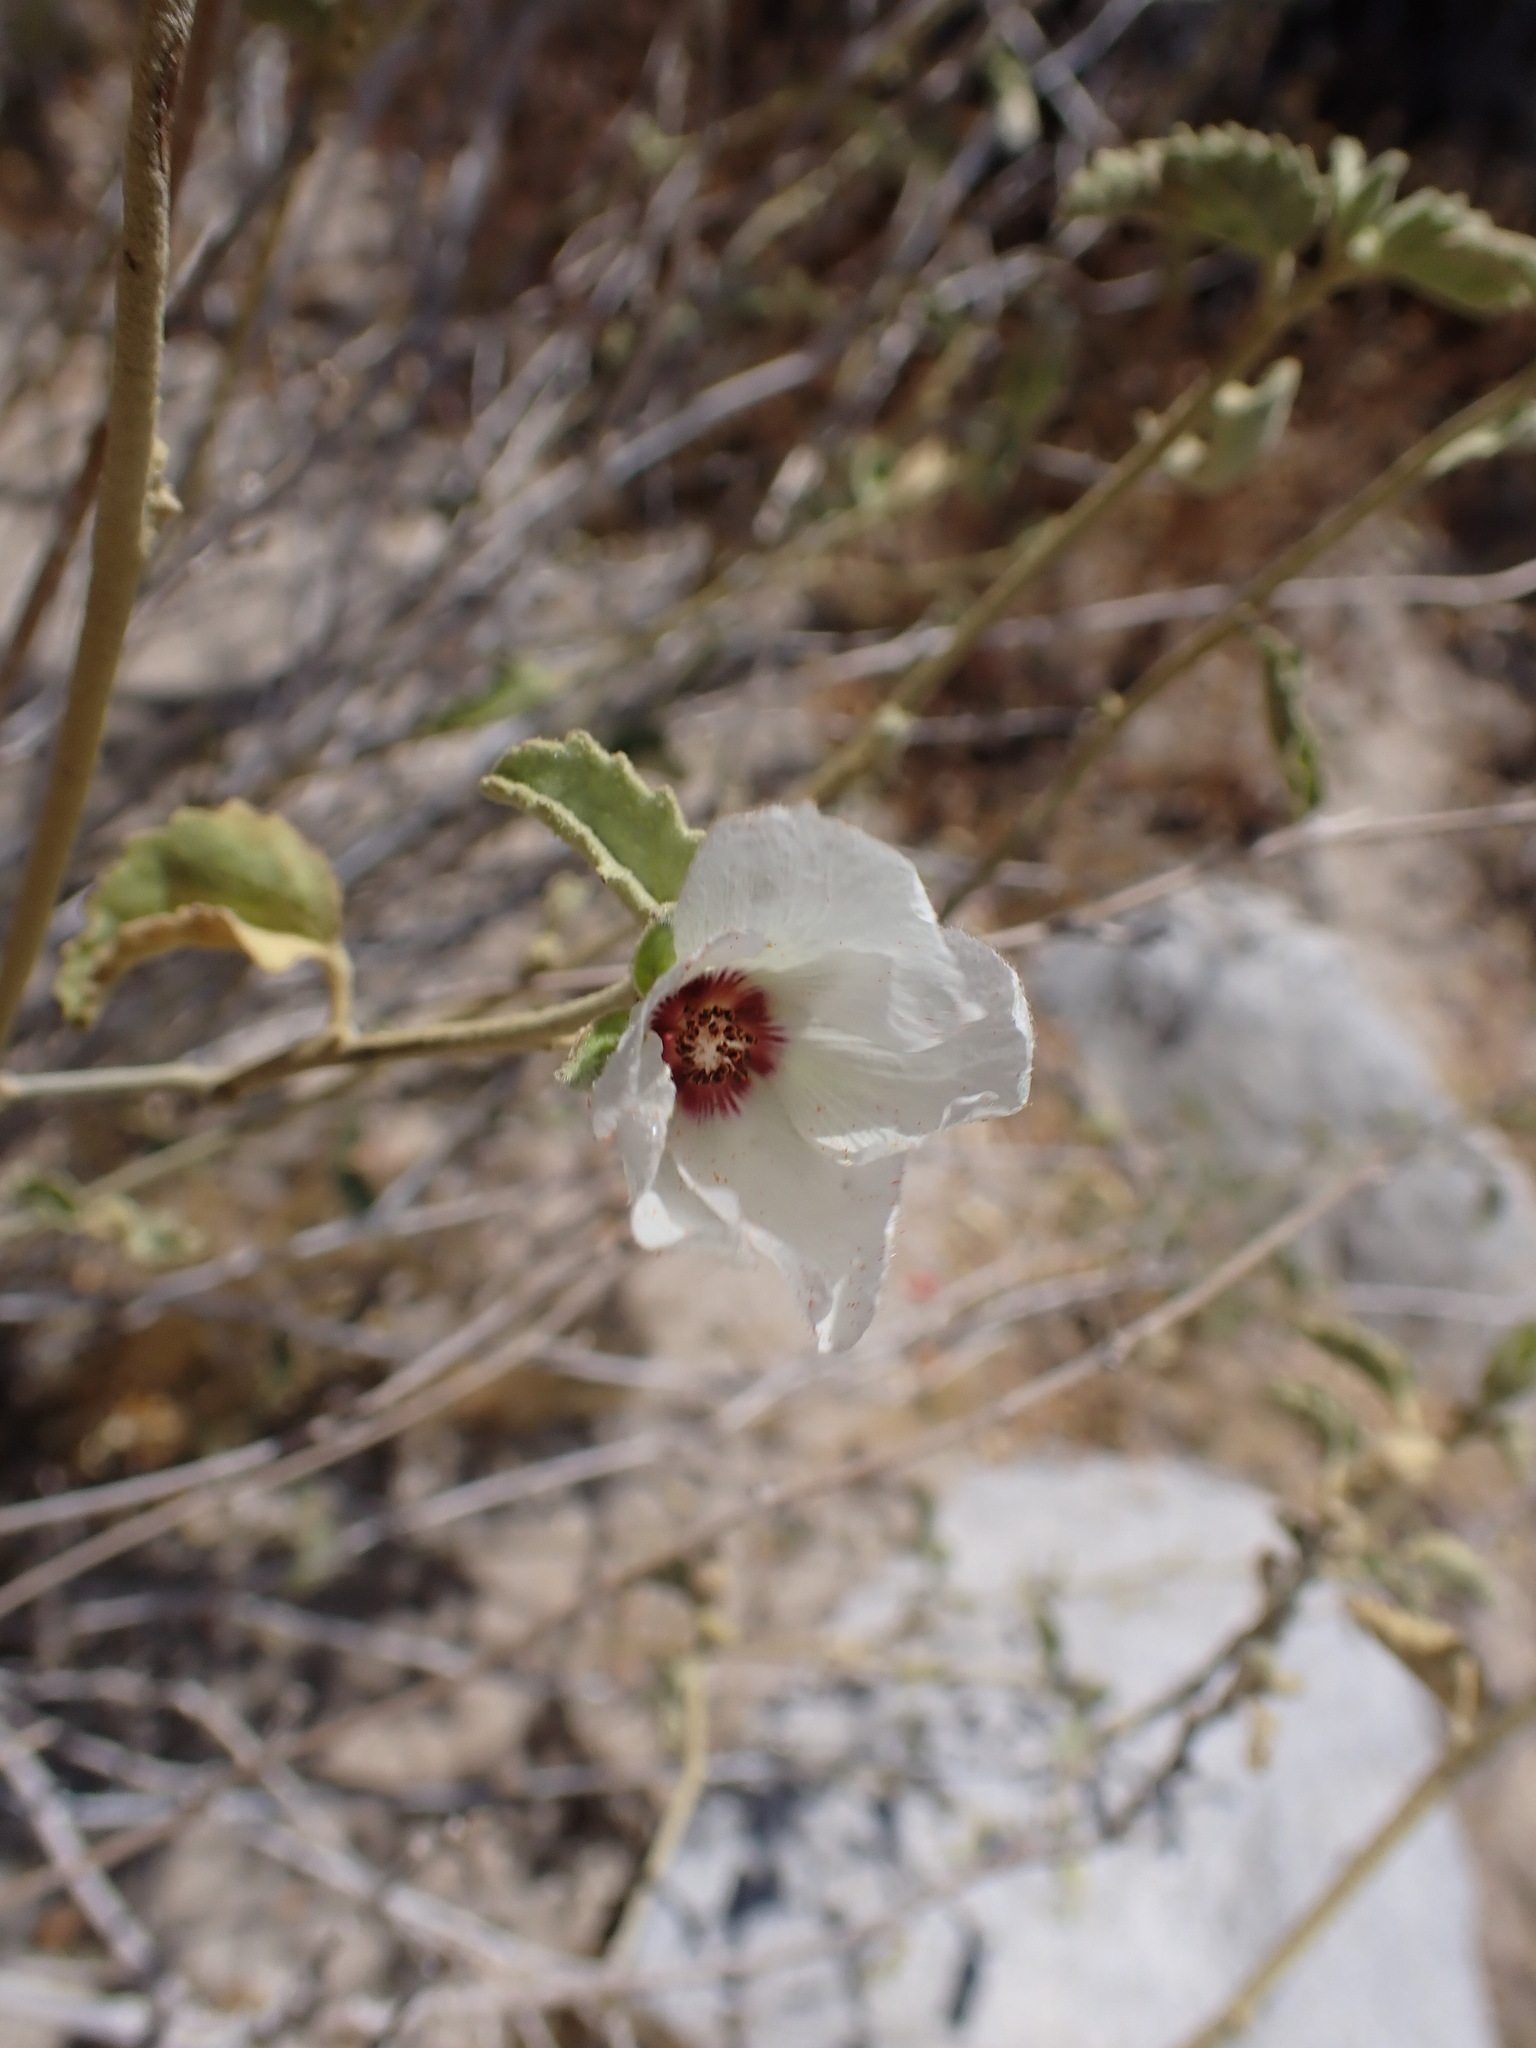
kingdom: Plantae
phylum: Tracheophyta
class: Magnoliopsida
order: Malvales
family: Malvaceae
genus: Hibiscus
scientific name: Hibiscus denudatus
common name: Paleface
